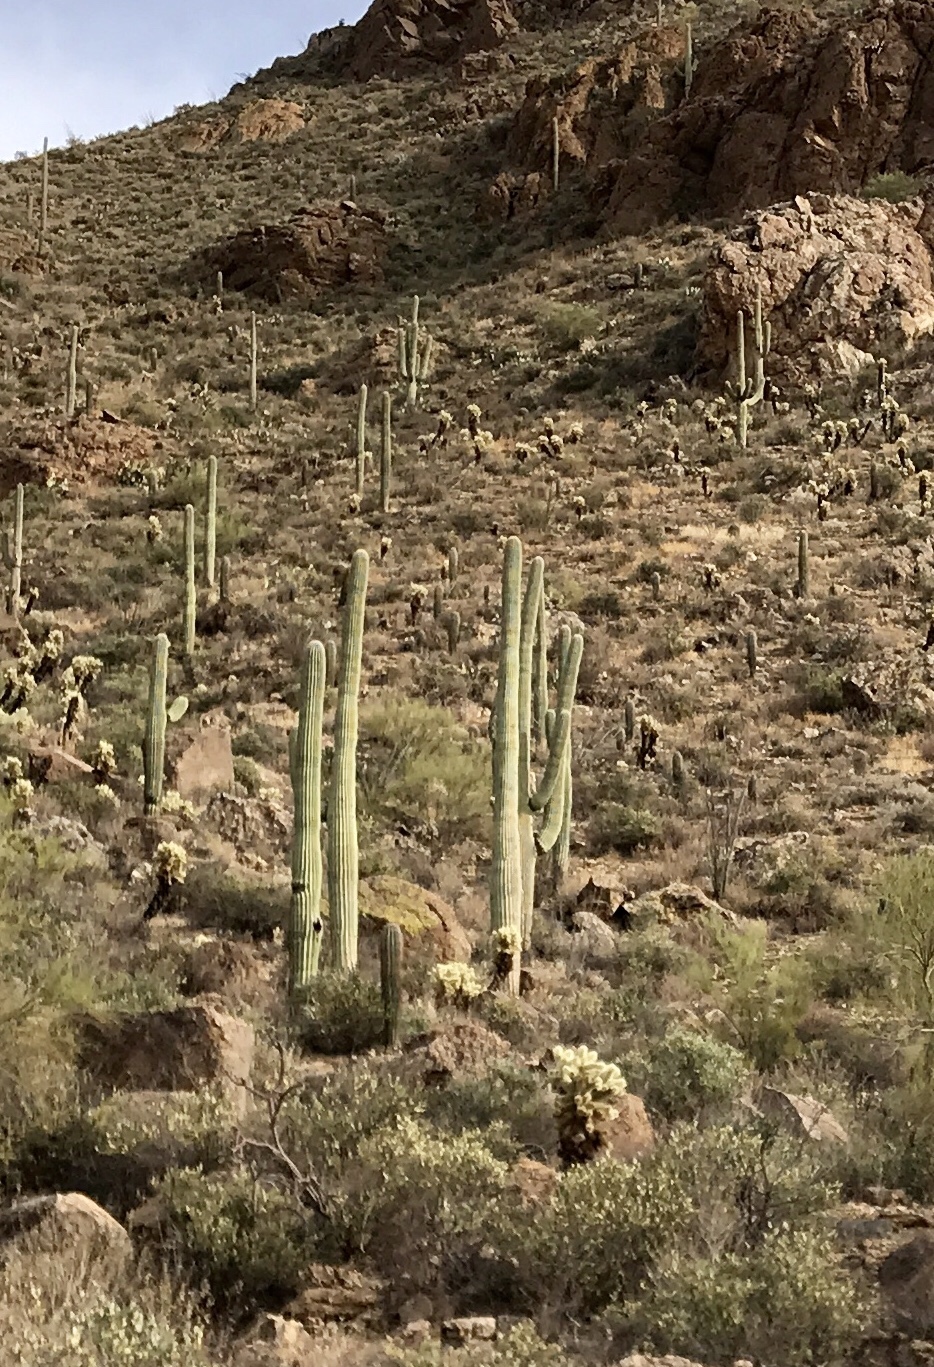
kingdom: Plantae
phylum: Tracheophyta
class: Magnoliopsida
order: Caryophyllales
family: Cactaceae
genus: Carnegiea
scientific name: Carnegiea gigantea
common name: Saguaro
